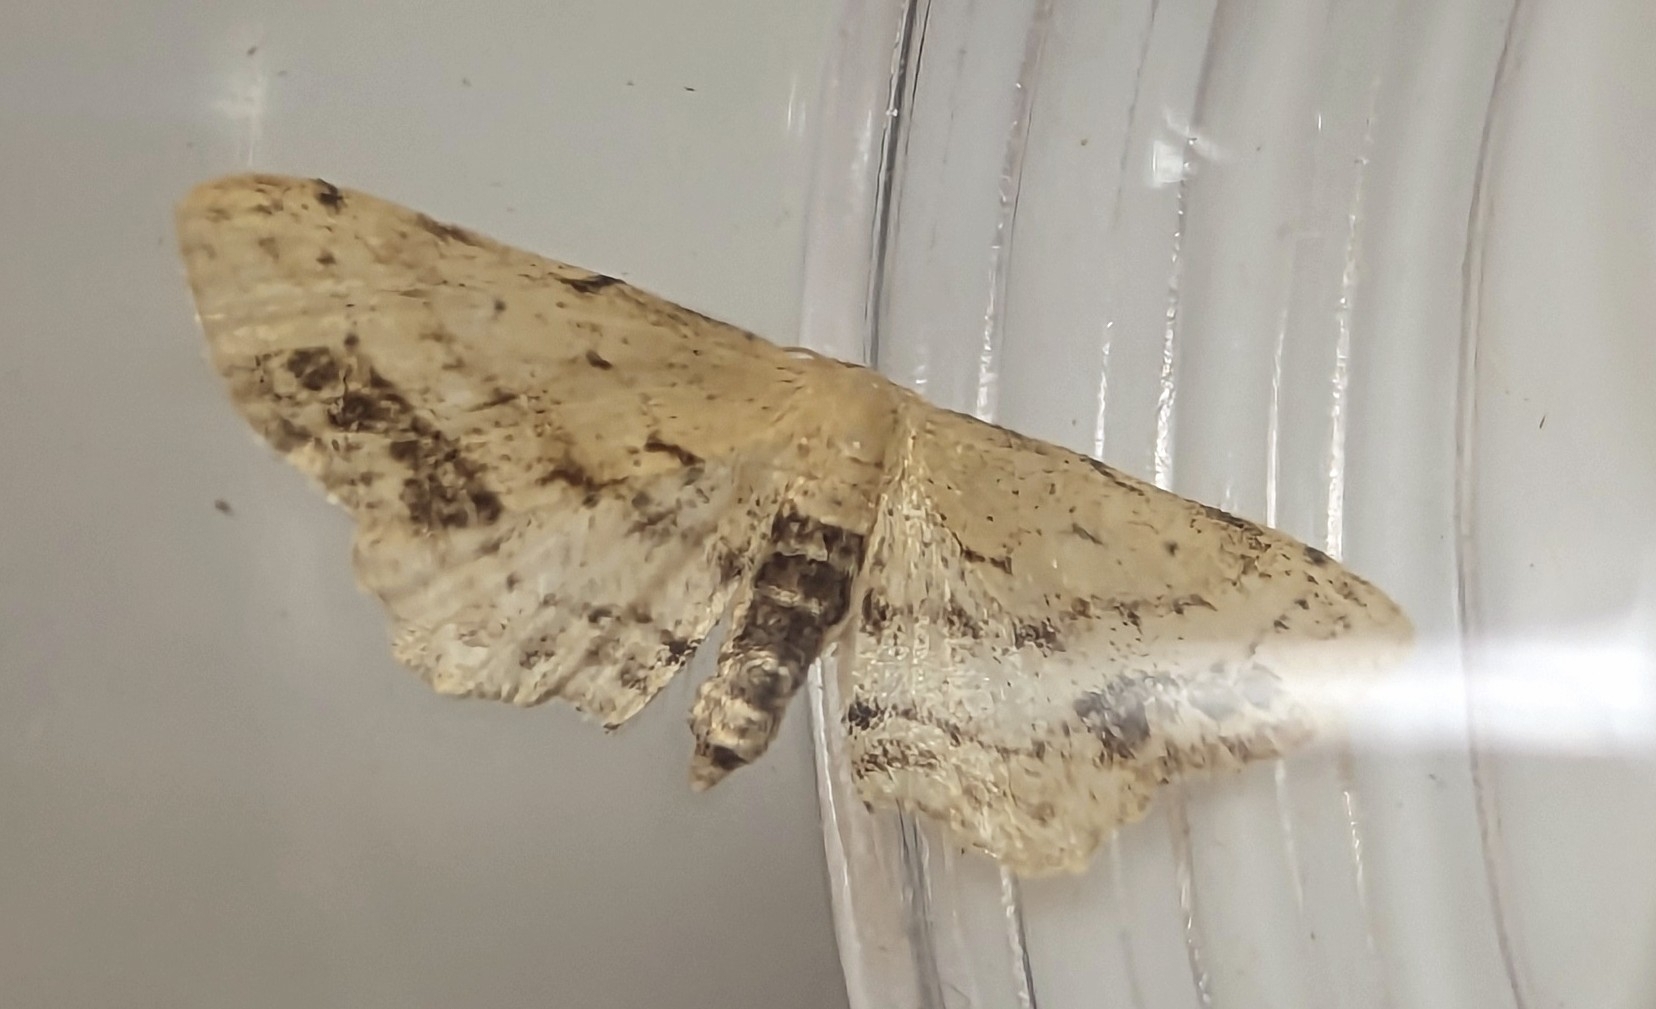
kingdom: Animalia
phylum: Arthropoda
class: Insecta
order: Lepidoptera
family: Geometridae
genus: Idaea
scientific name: Idaea dimidiata
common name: Single-dotted wave
